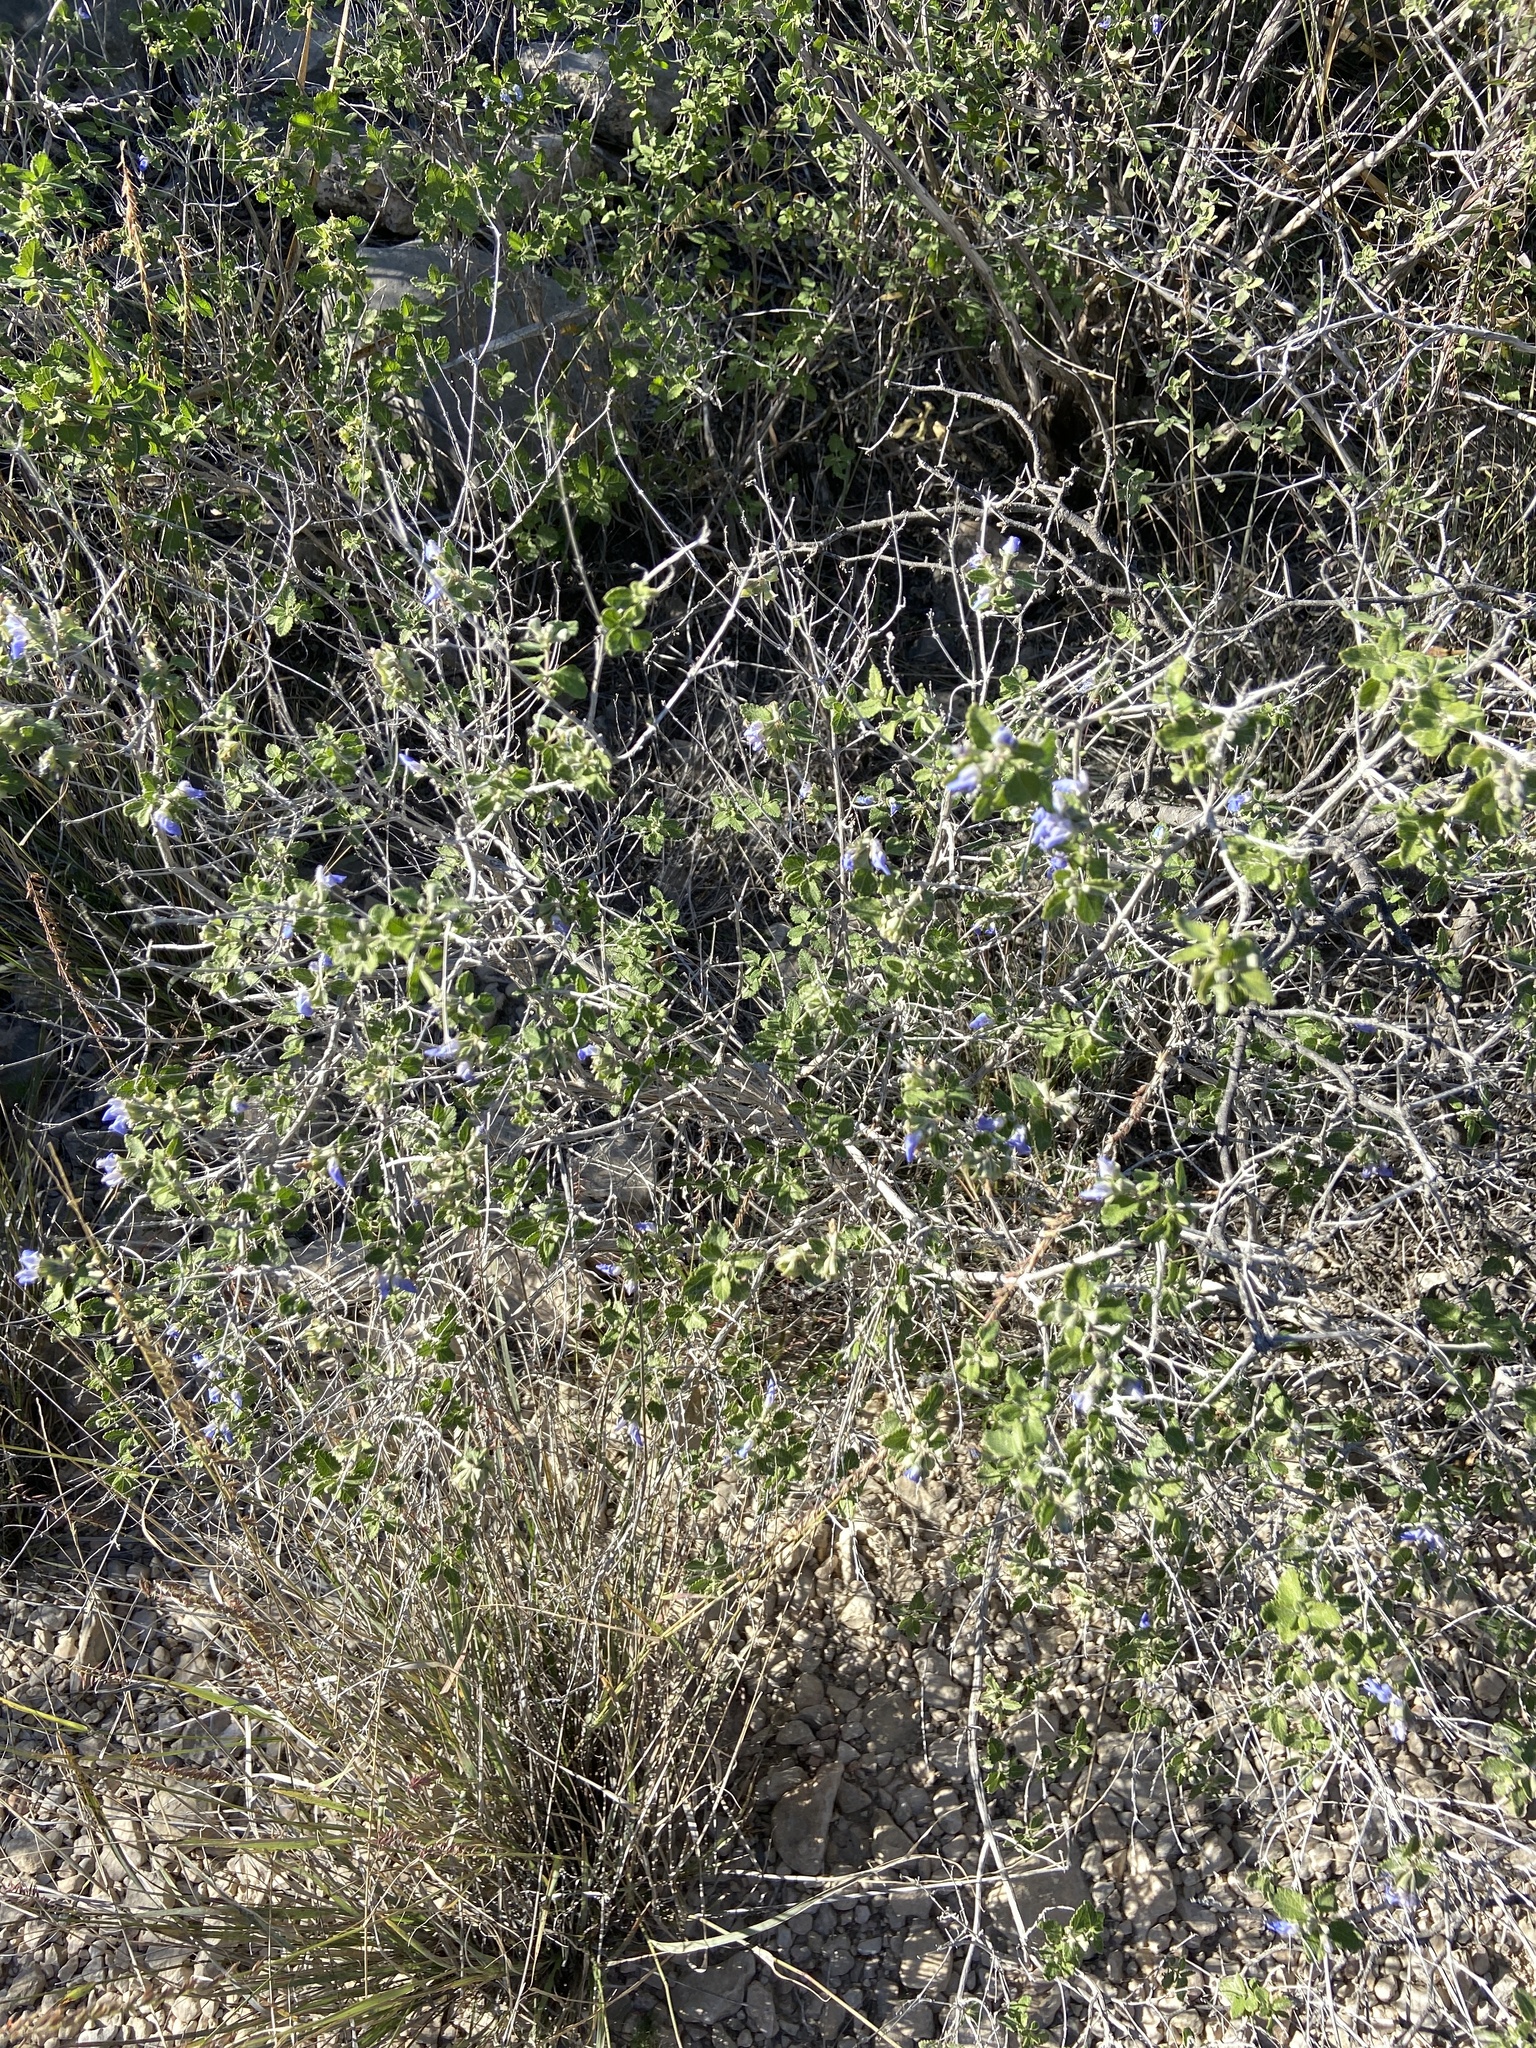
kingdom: Plantae
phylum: Tracheophyta
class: Magnoliopsida
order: Lamiales
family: Lamiaceae
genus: Salvia
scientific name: Salvia ballotiflora
